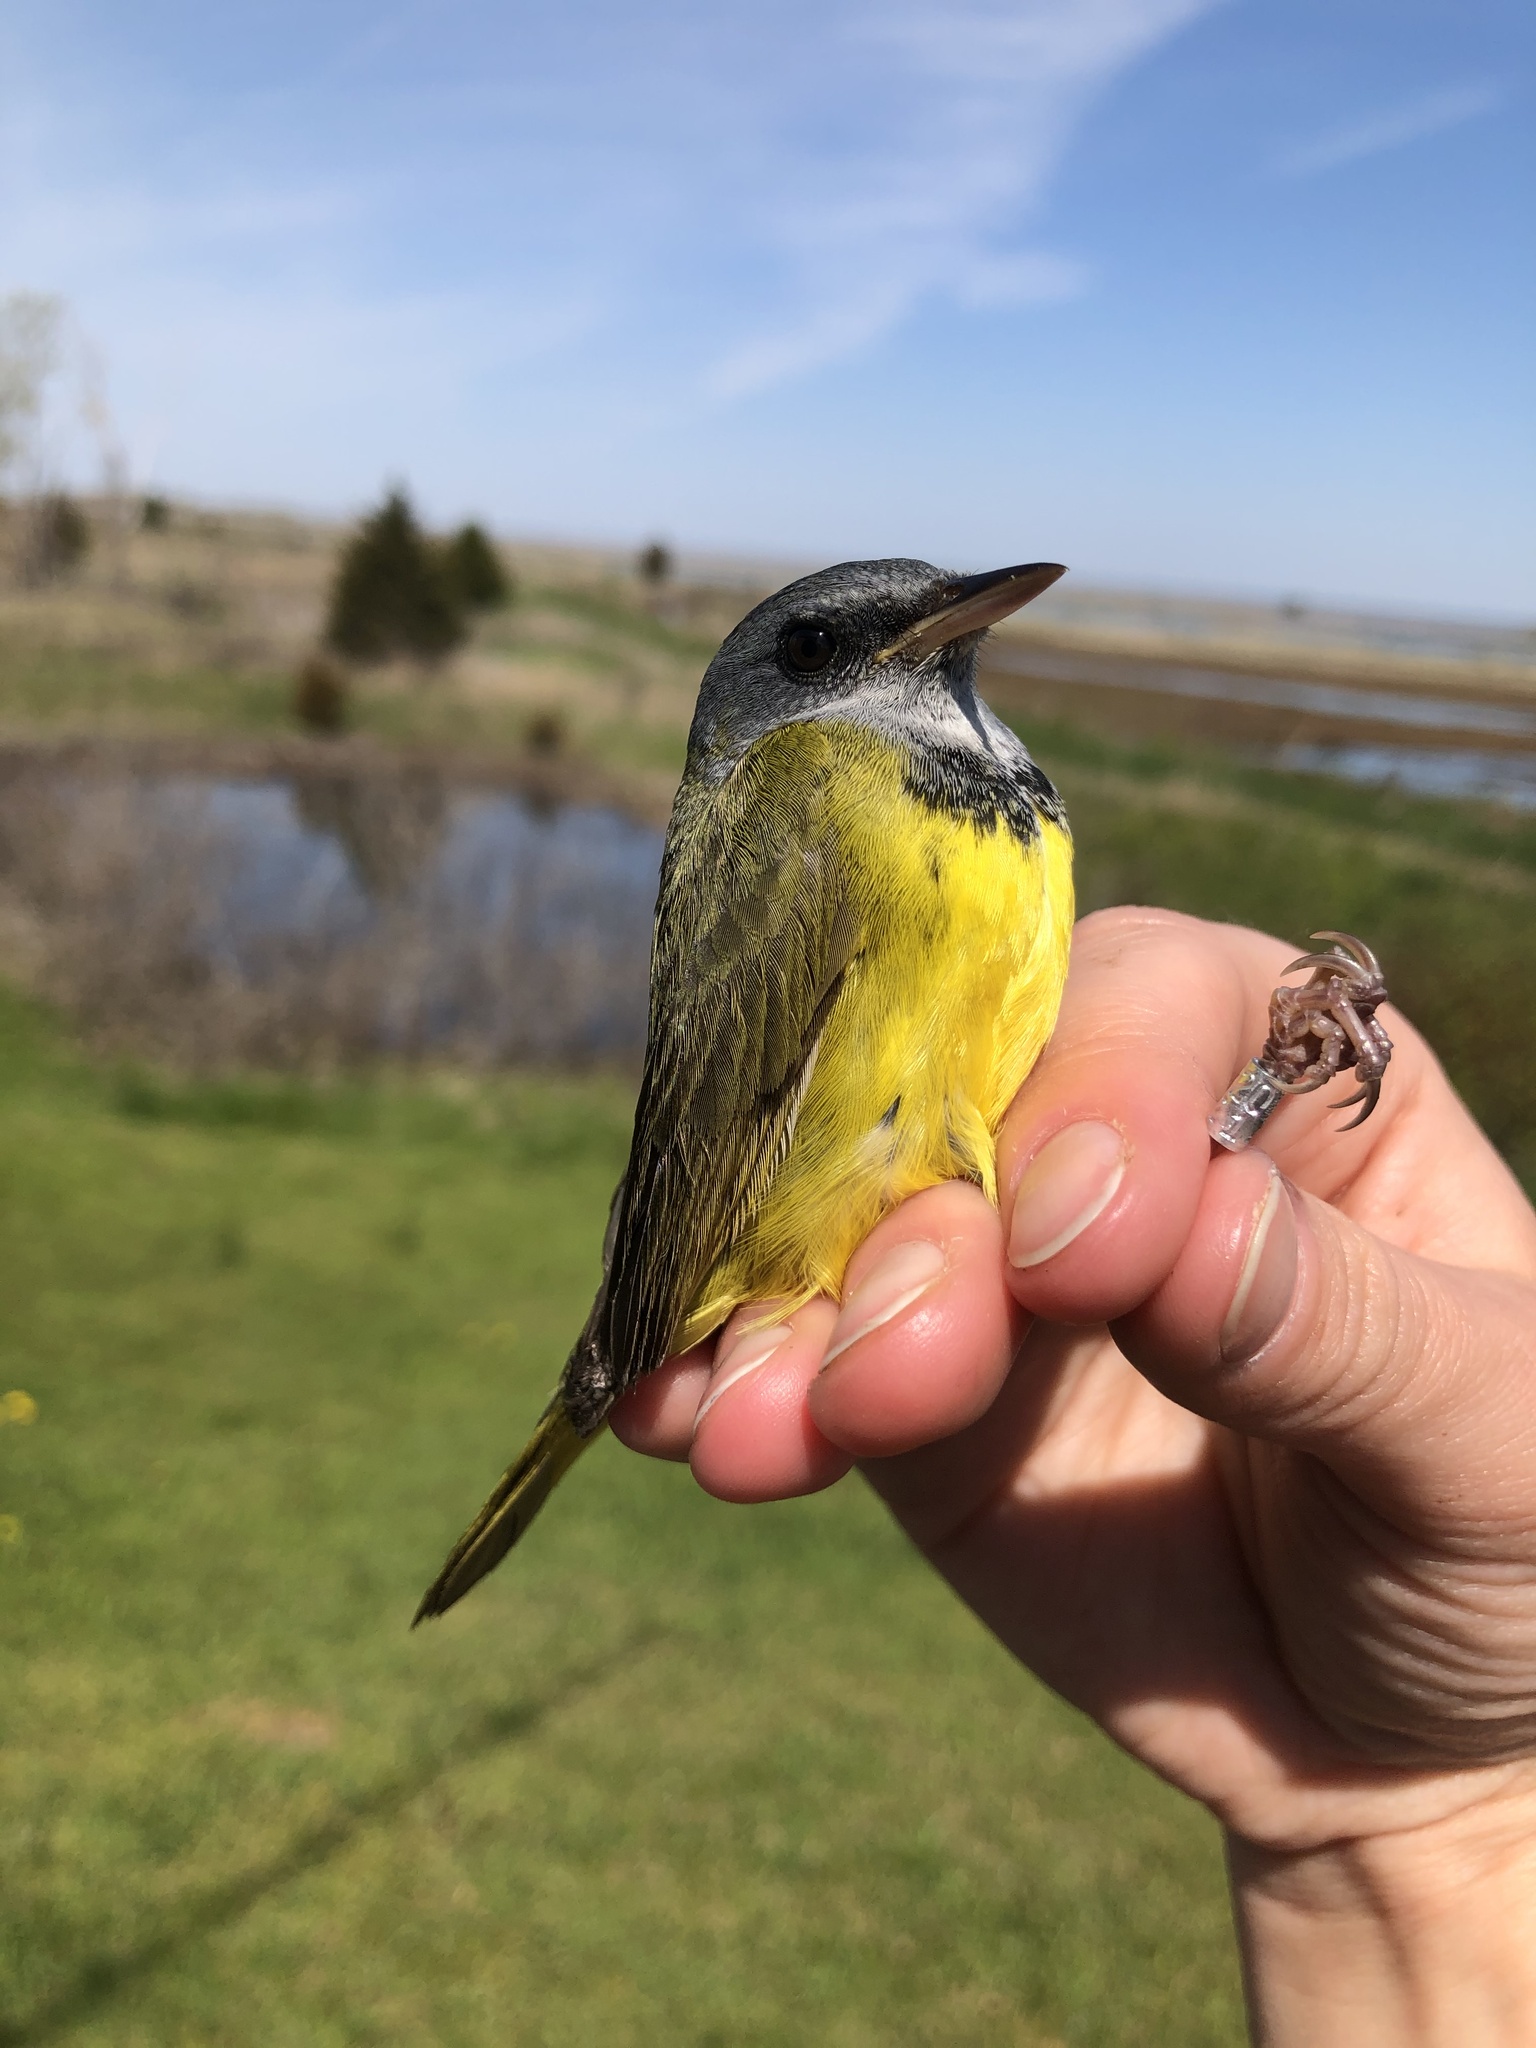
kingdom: Animalia
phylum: Chordata
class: Aves
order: Passeriformes
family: Parulidae
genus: Geothlypis
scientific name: Geothlypis philadelphia
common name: Mourning warbler
